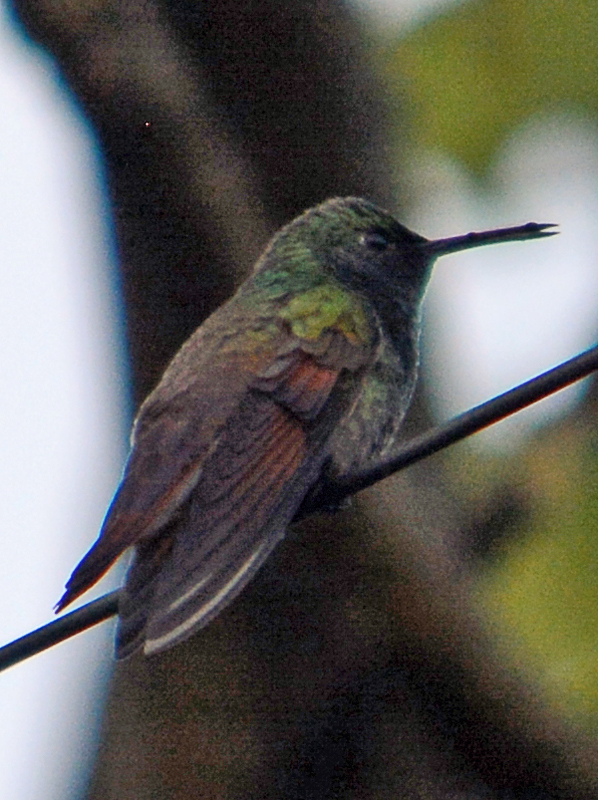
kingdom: Animalia
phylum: Chordata
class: Aves
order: Apodiformes
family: Trochilidae
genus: Saucerottia
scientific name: Saucerottia beryllina
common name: Berylline hummingbird
